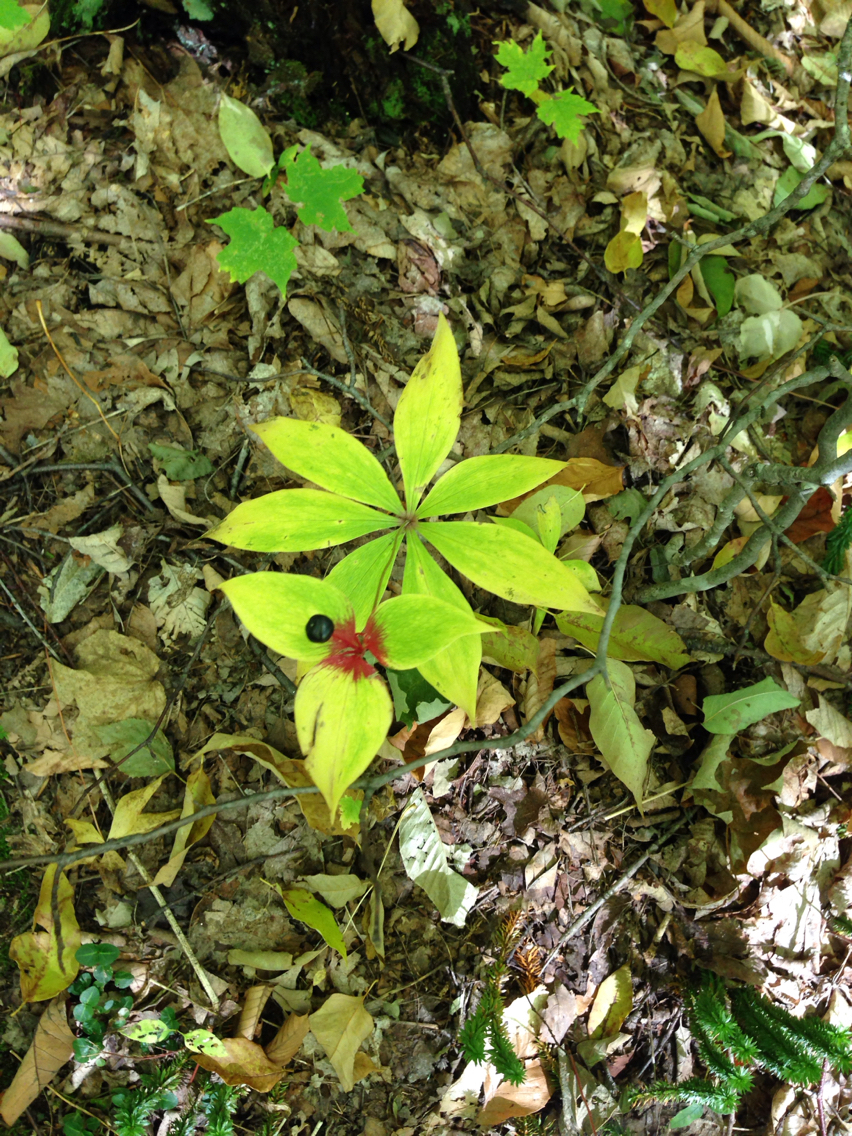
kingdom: Plantae
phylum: Tracheophyta
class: Liliopsida
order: Liliales
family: Liliaceae
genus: Medeola
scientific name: Medeola virginiana
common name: Indian cucumber-root
